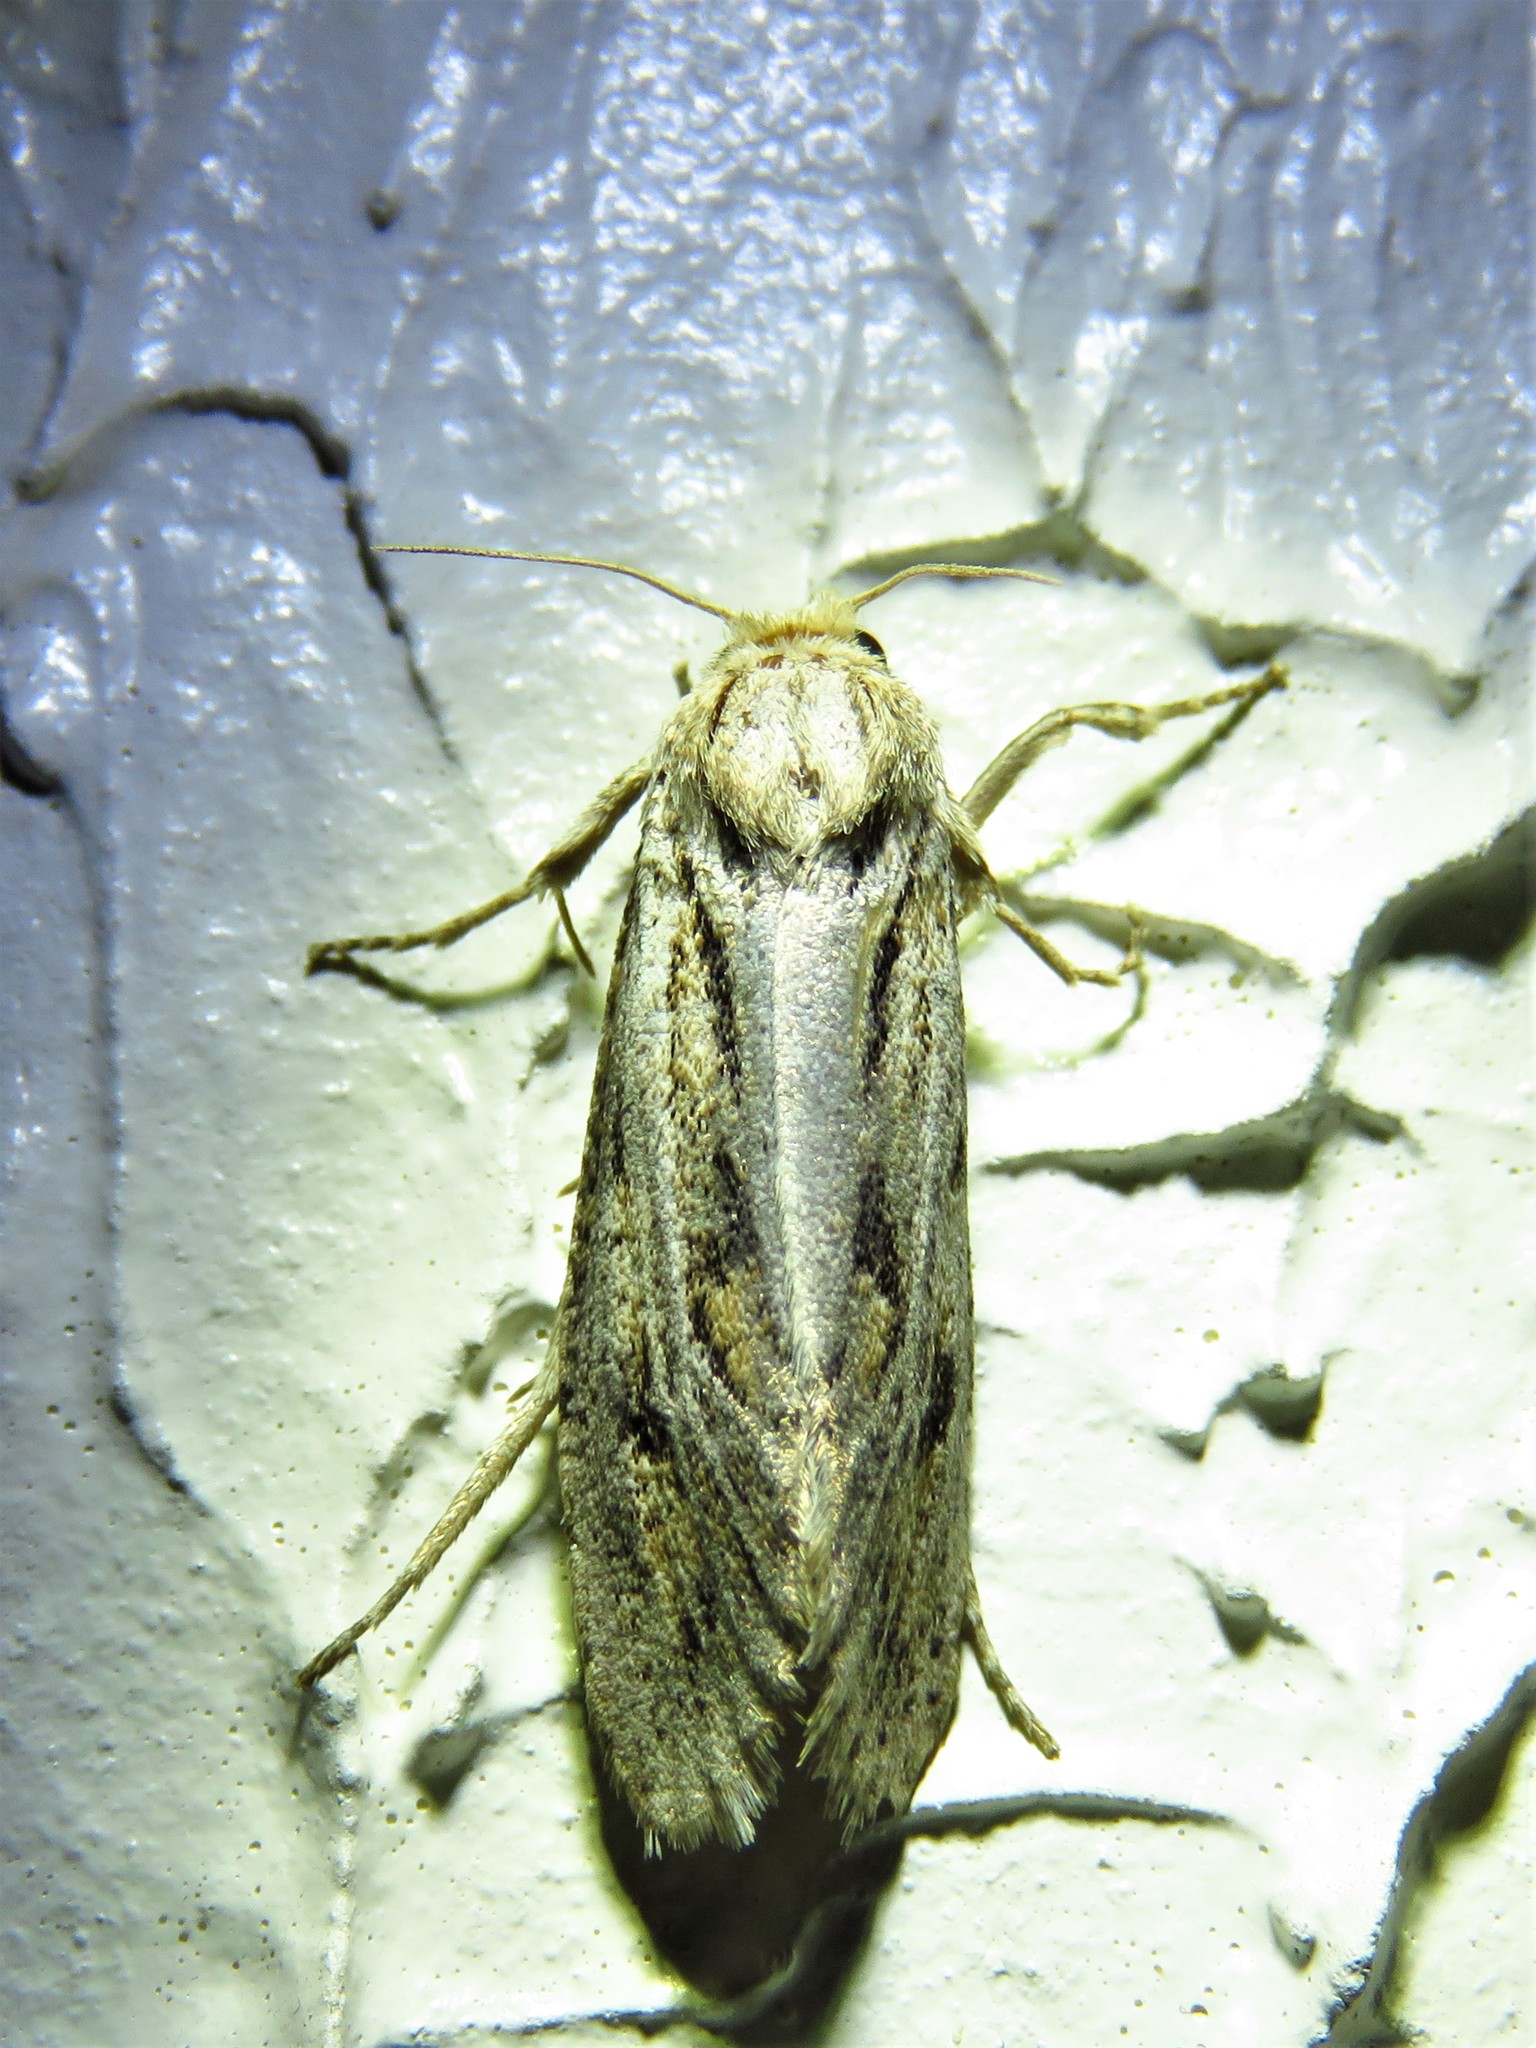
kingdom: Animalia
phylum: Arthropoda
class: Insecta
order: Lepidoptera
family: Tineidae
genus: Acrolophus
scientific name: Acrolophus popeanella
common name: Clemens' grass tubeworm moth
